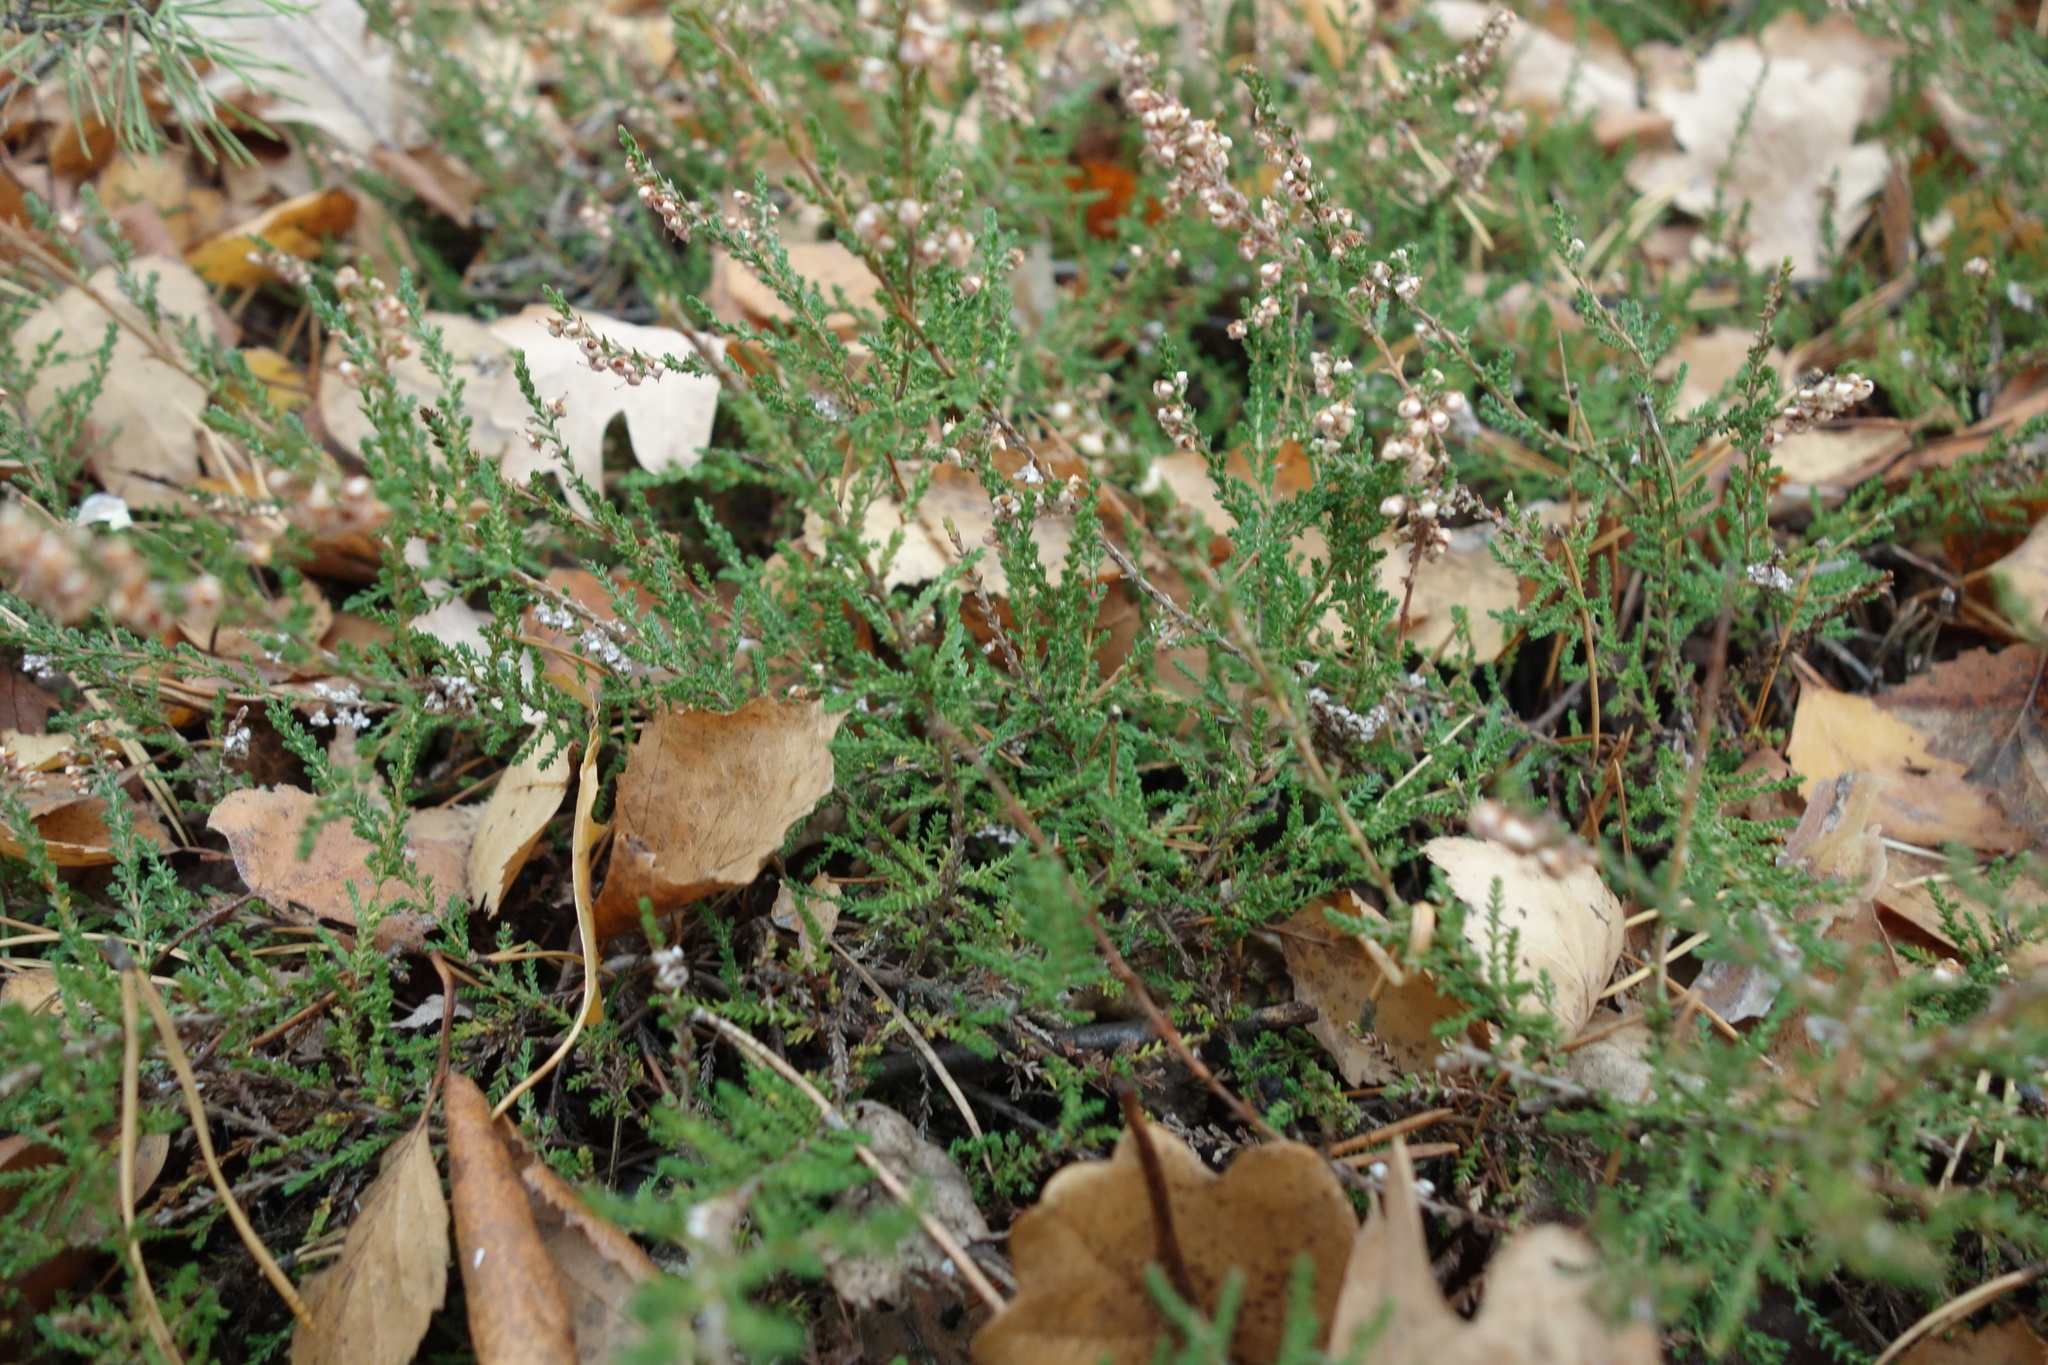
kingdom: Plantae
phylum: Tracheophyta
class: Magnoliopsida
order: Ericales
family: Ericaceae
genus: Calluna
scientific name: Calluna vulgaris
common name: Heather
